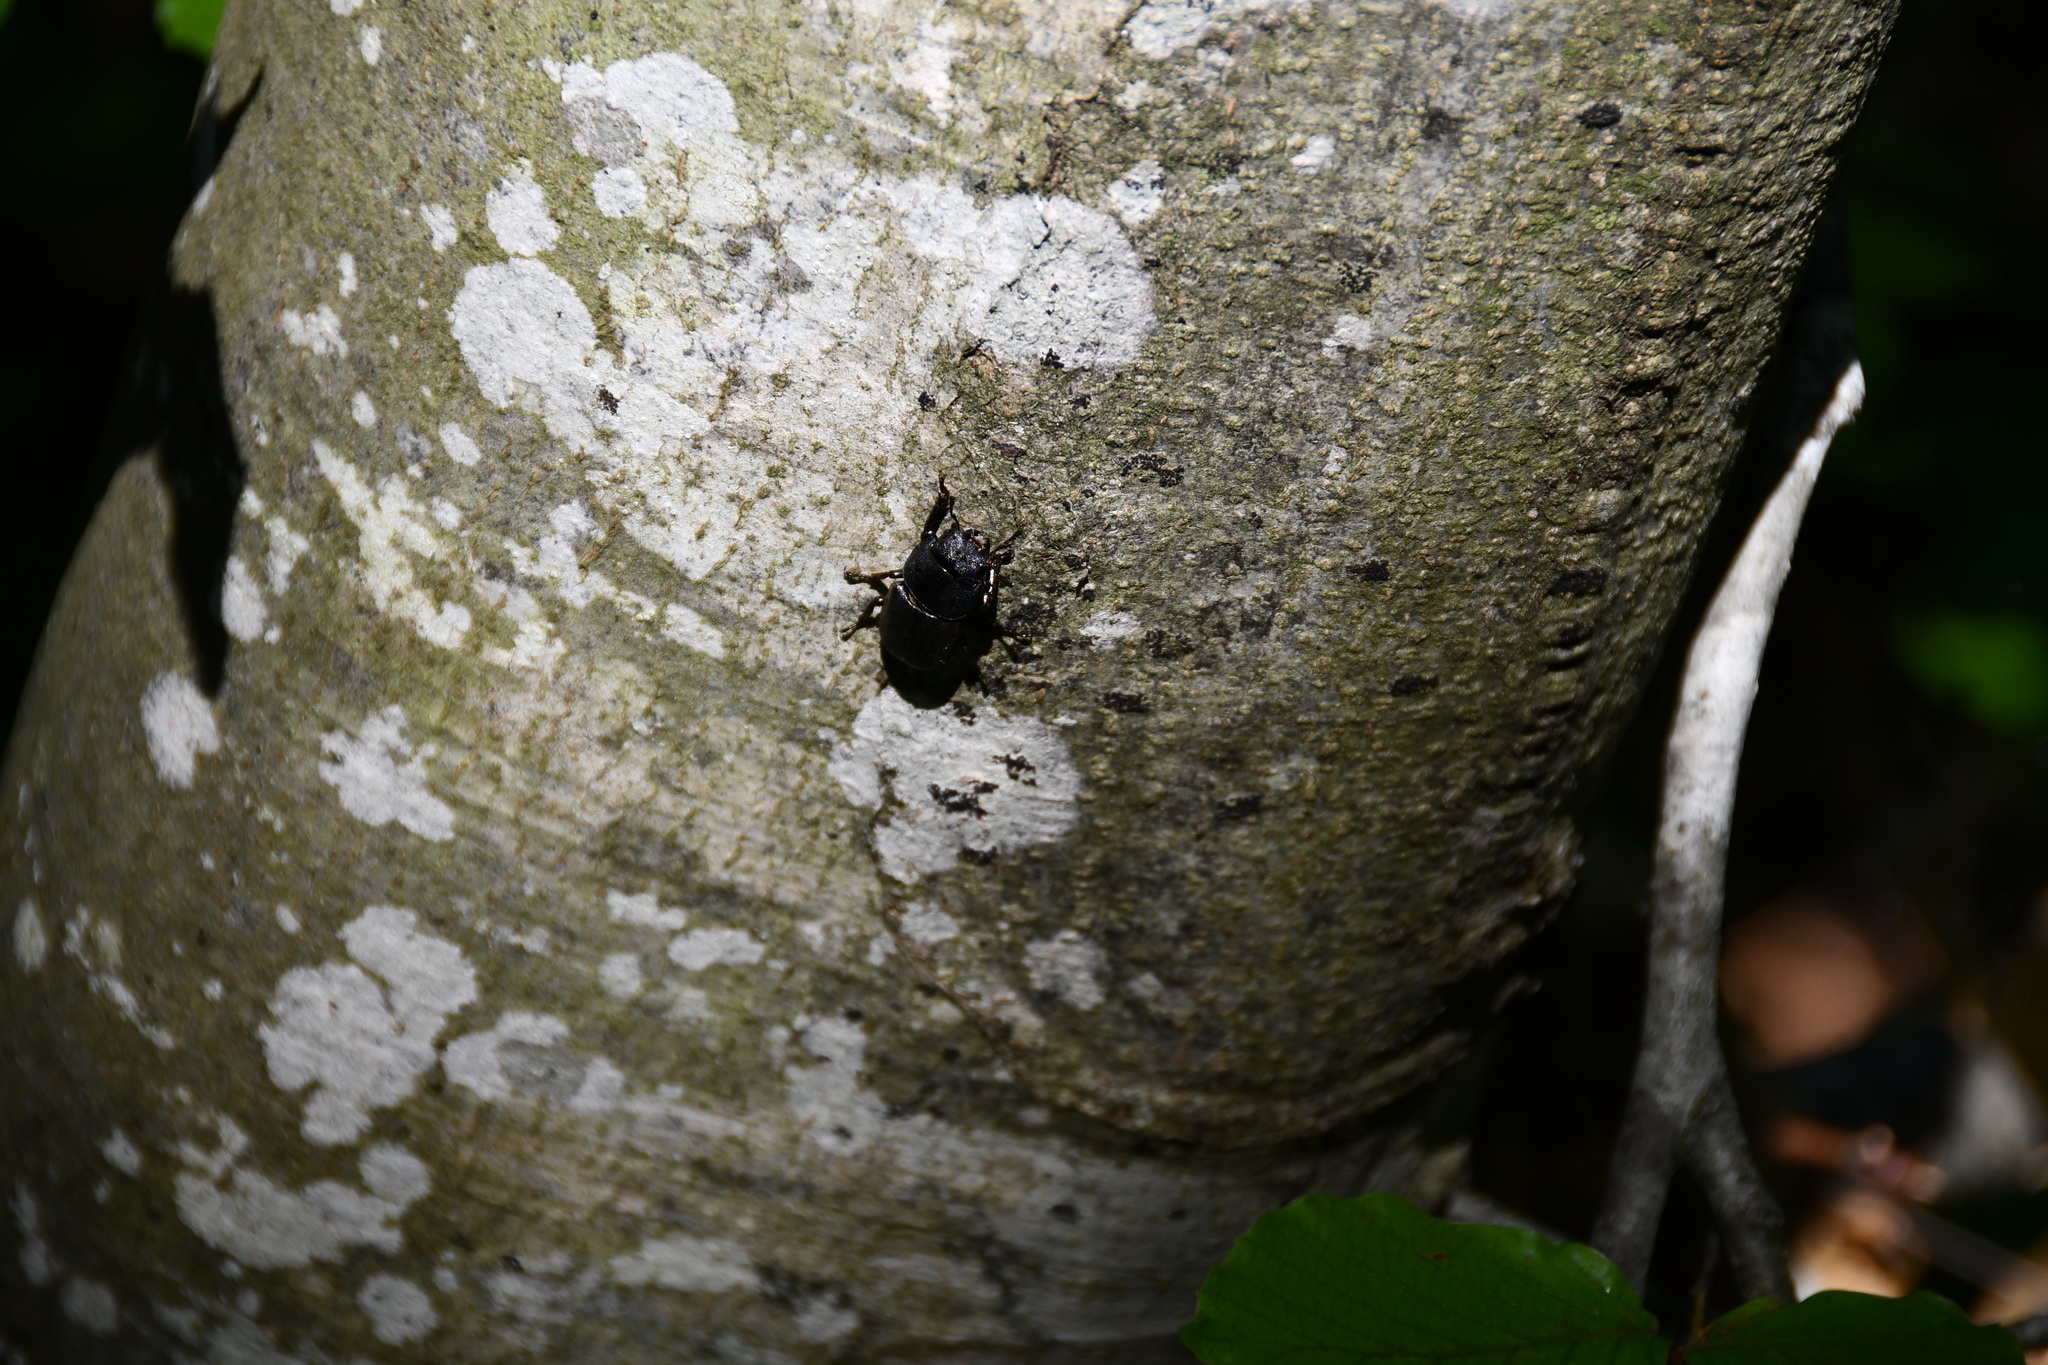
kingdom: Animalia
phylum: Arthropoda
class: Insecta
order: Coleoptera
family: Lucanidae
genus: Dorcus
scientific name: Dorcus parallelipipedus
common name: Lesser stag beetle
